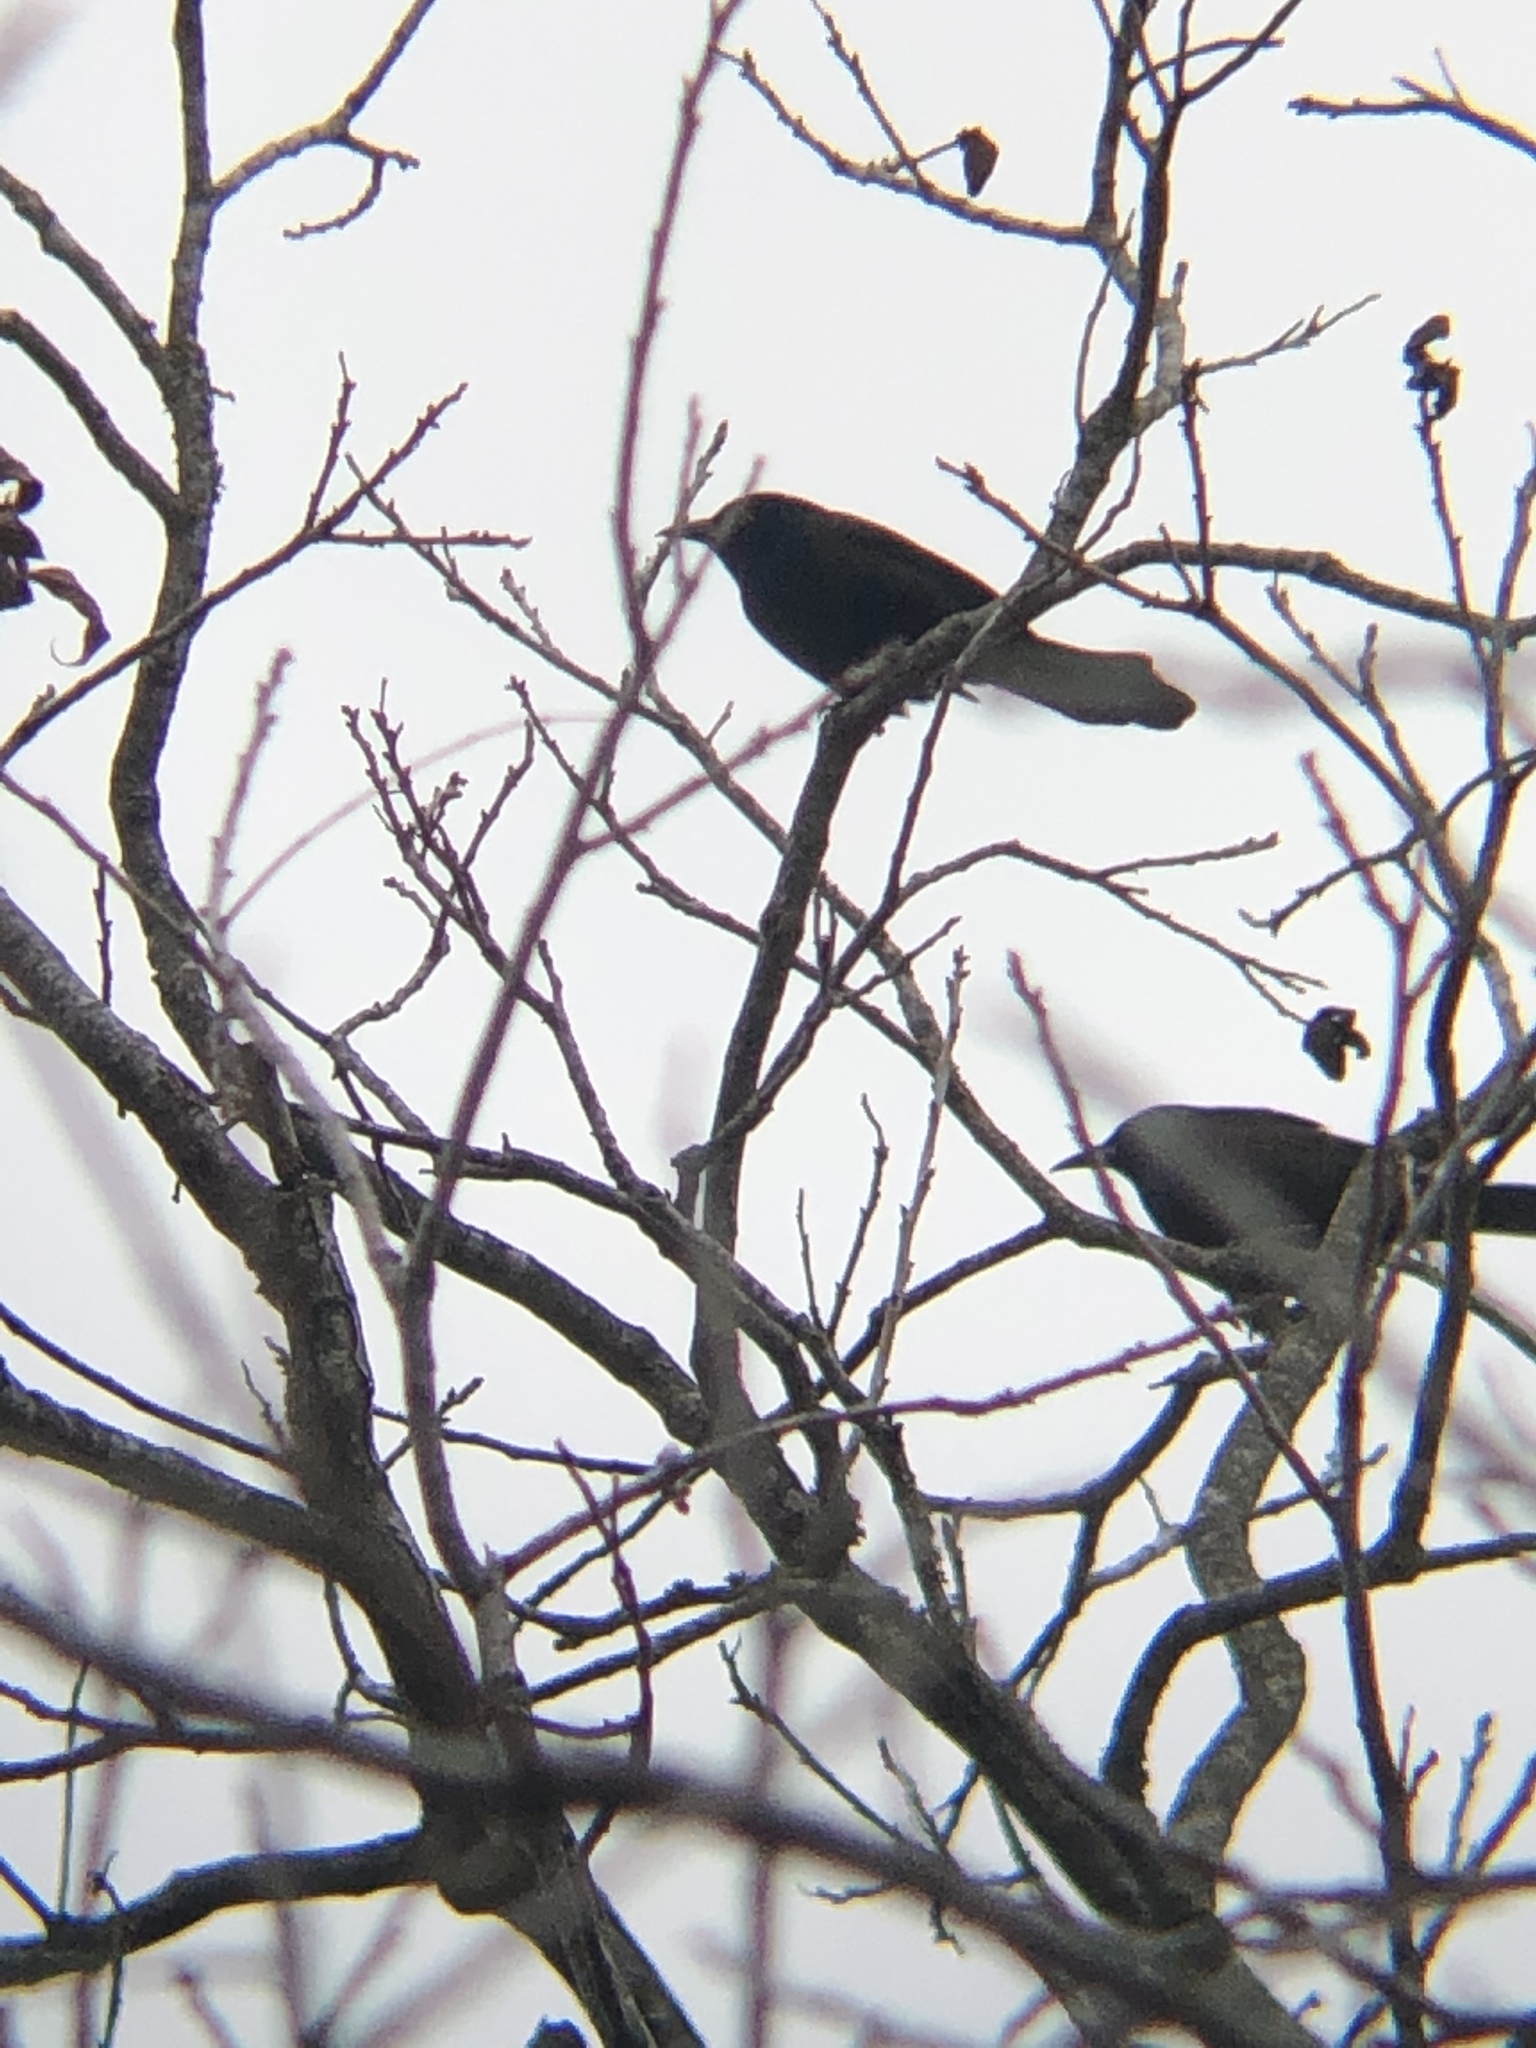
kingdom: Animalia
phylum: Chordata
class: Aves
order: Passeriformes
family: Icteridae
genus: Quiscalus
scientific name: Quiscalus quiscula
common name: Common grackle
